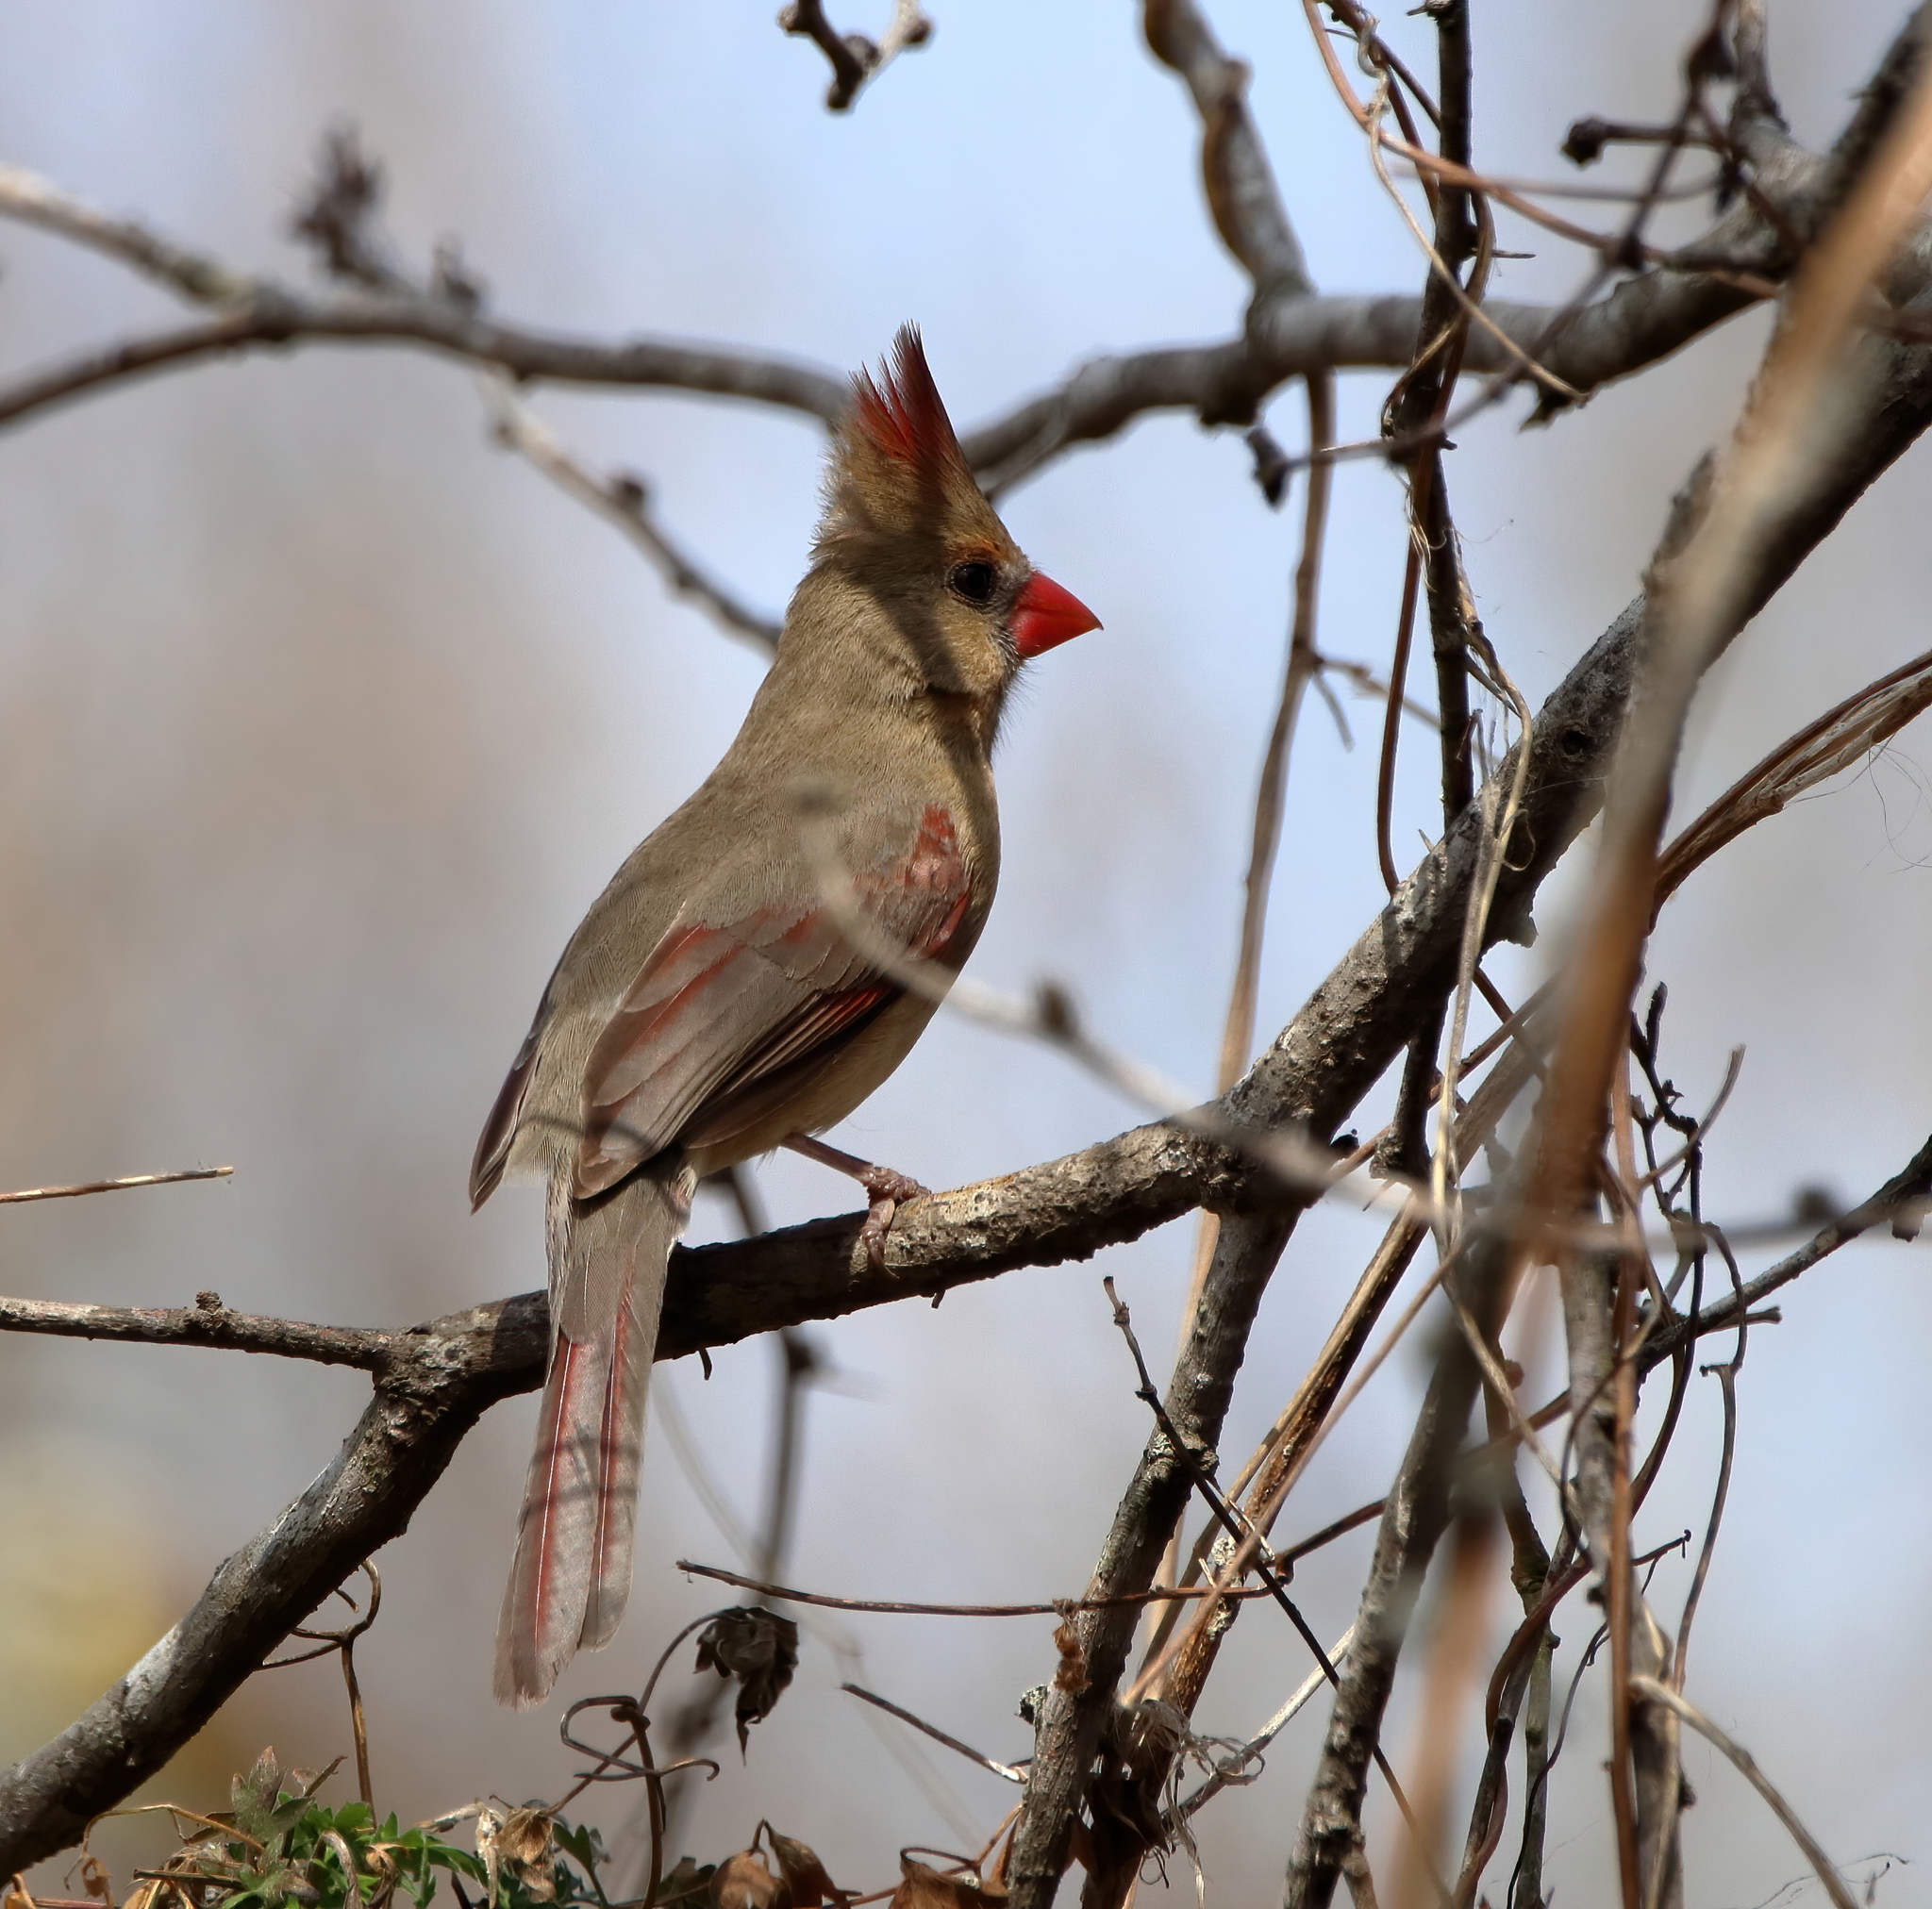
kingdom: Animalia
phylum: Chordata
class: Aves
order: Passeriformes
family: Cardinalidae
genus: Cardinalis
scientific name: Cardinalis cardinalis
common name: Northern cardinal
